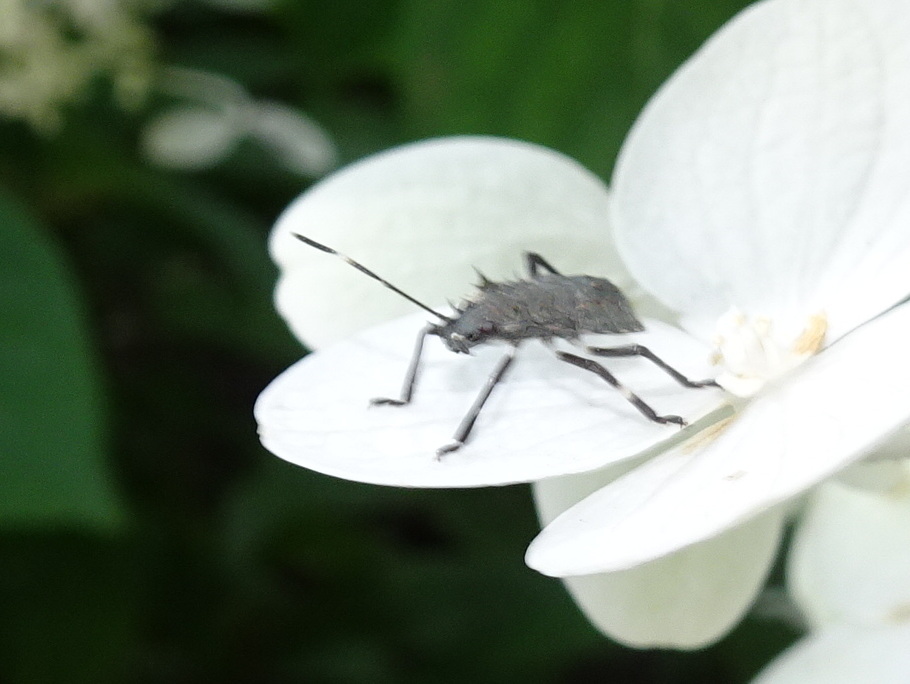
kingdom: Animalia
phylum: Arthropoda
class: Insecta
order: Hemiptera
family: Pentatomidae
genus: Halyomorpha
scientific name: Halyomorpha halys
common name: Brown marmorated stink bug
